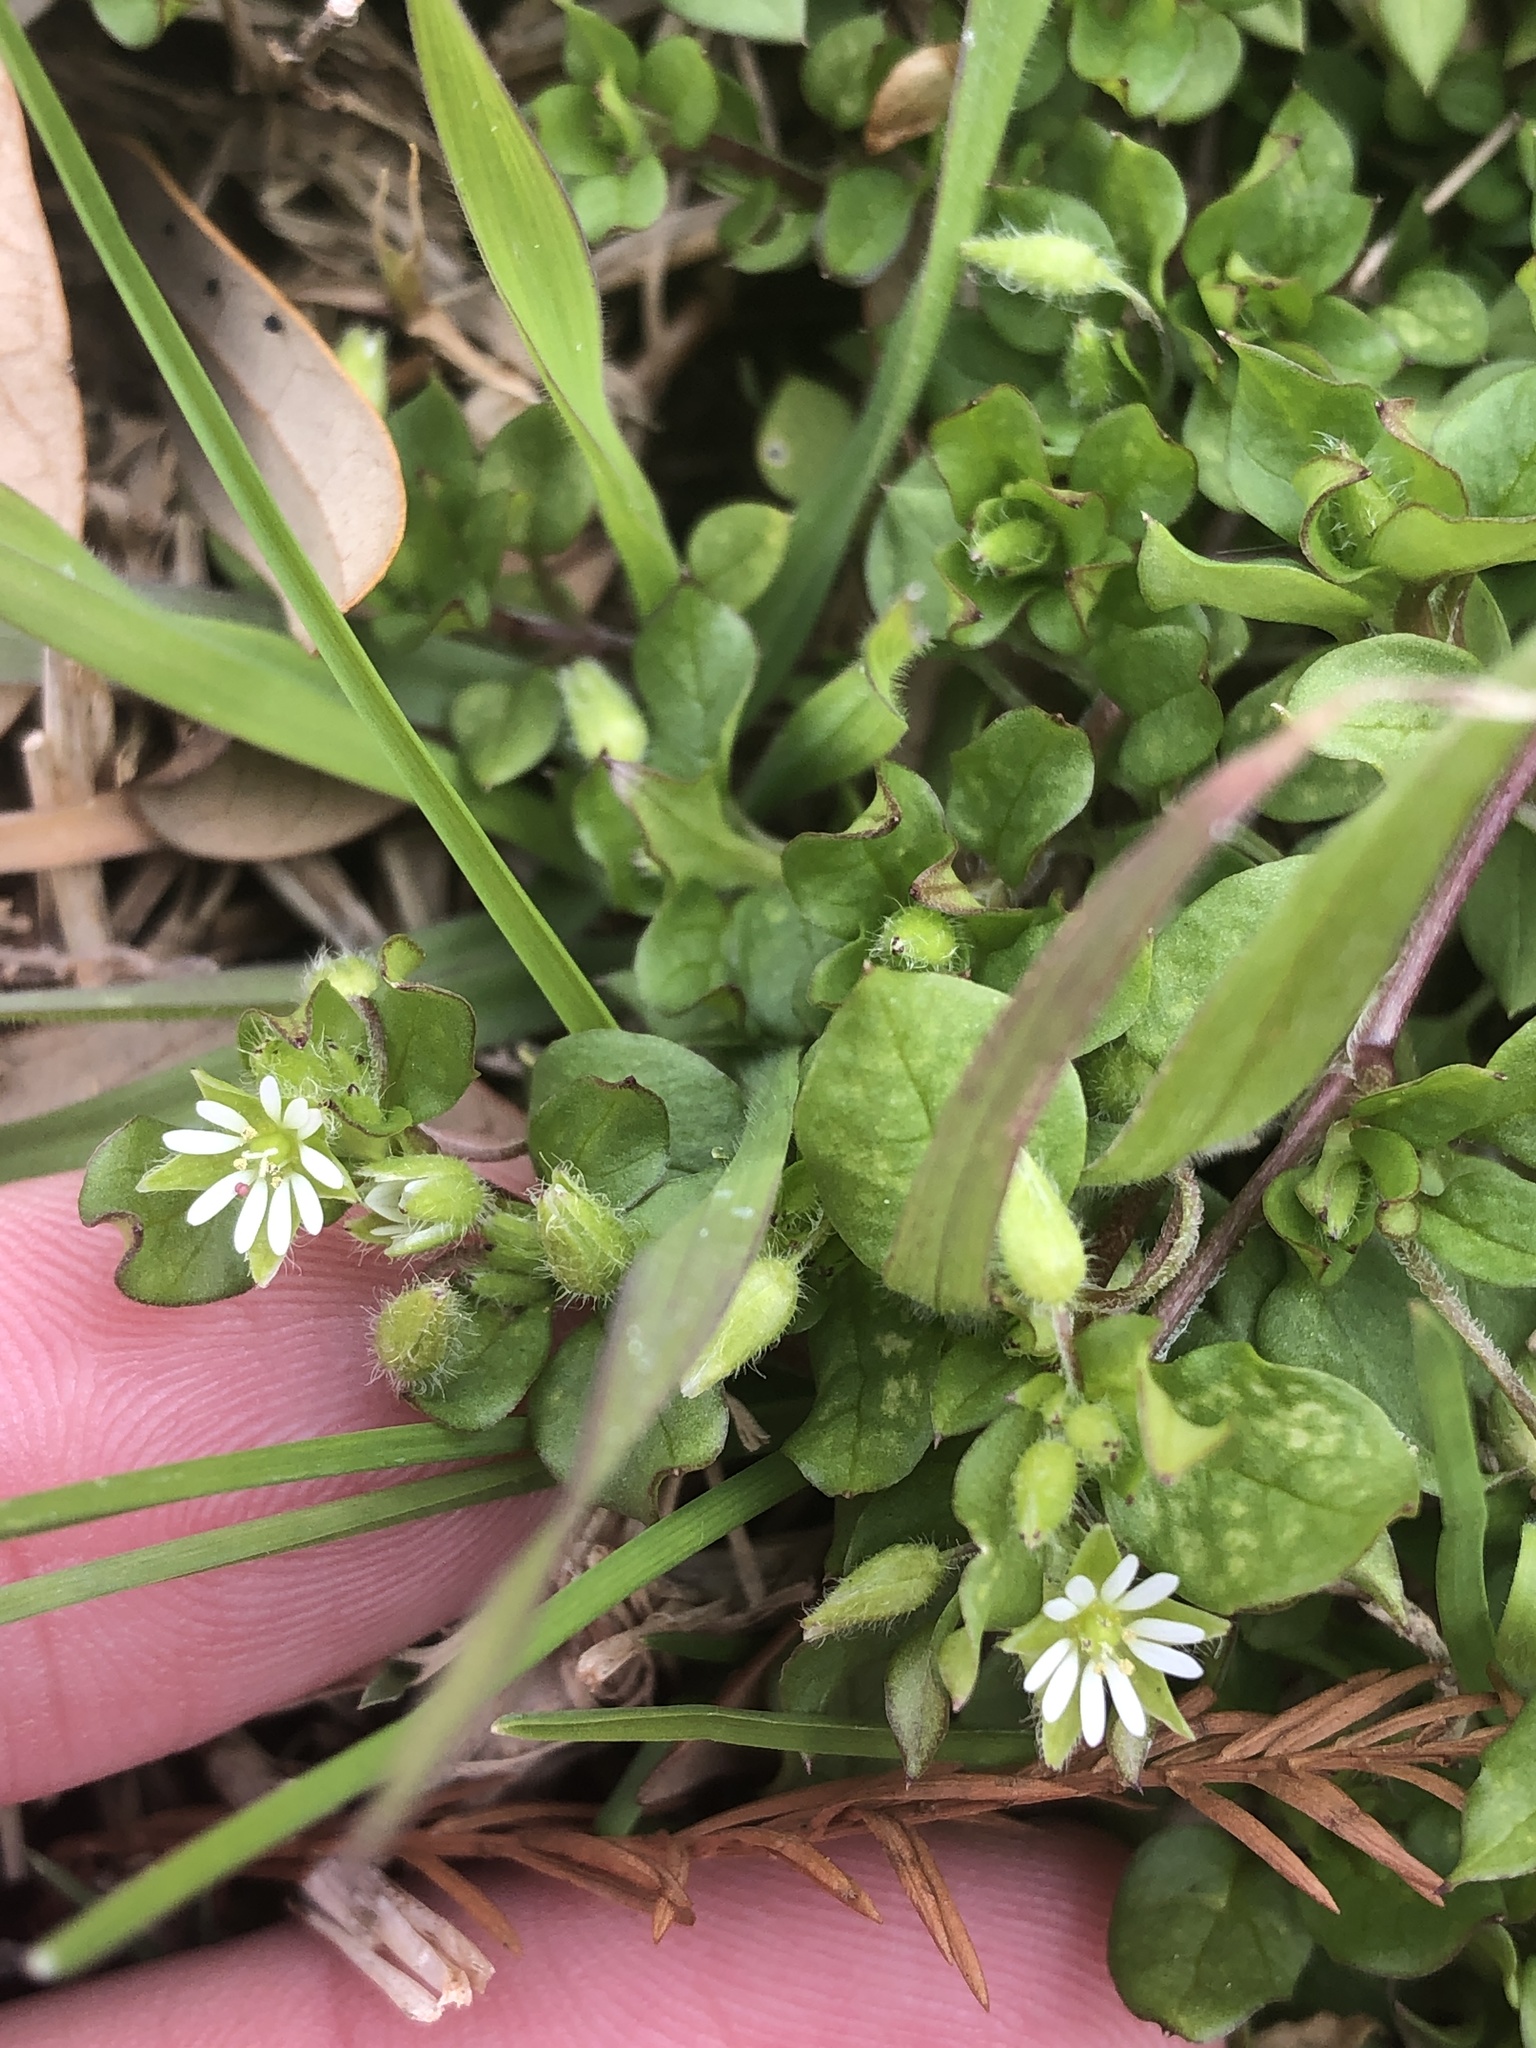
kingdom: Plantae
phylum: Tracheophyta
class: Magnoliopsida
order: Caryophyllales
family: Caryophyllaceae
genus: Stellaria
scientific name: Stellaria media
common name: Common chickweed
